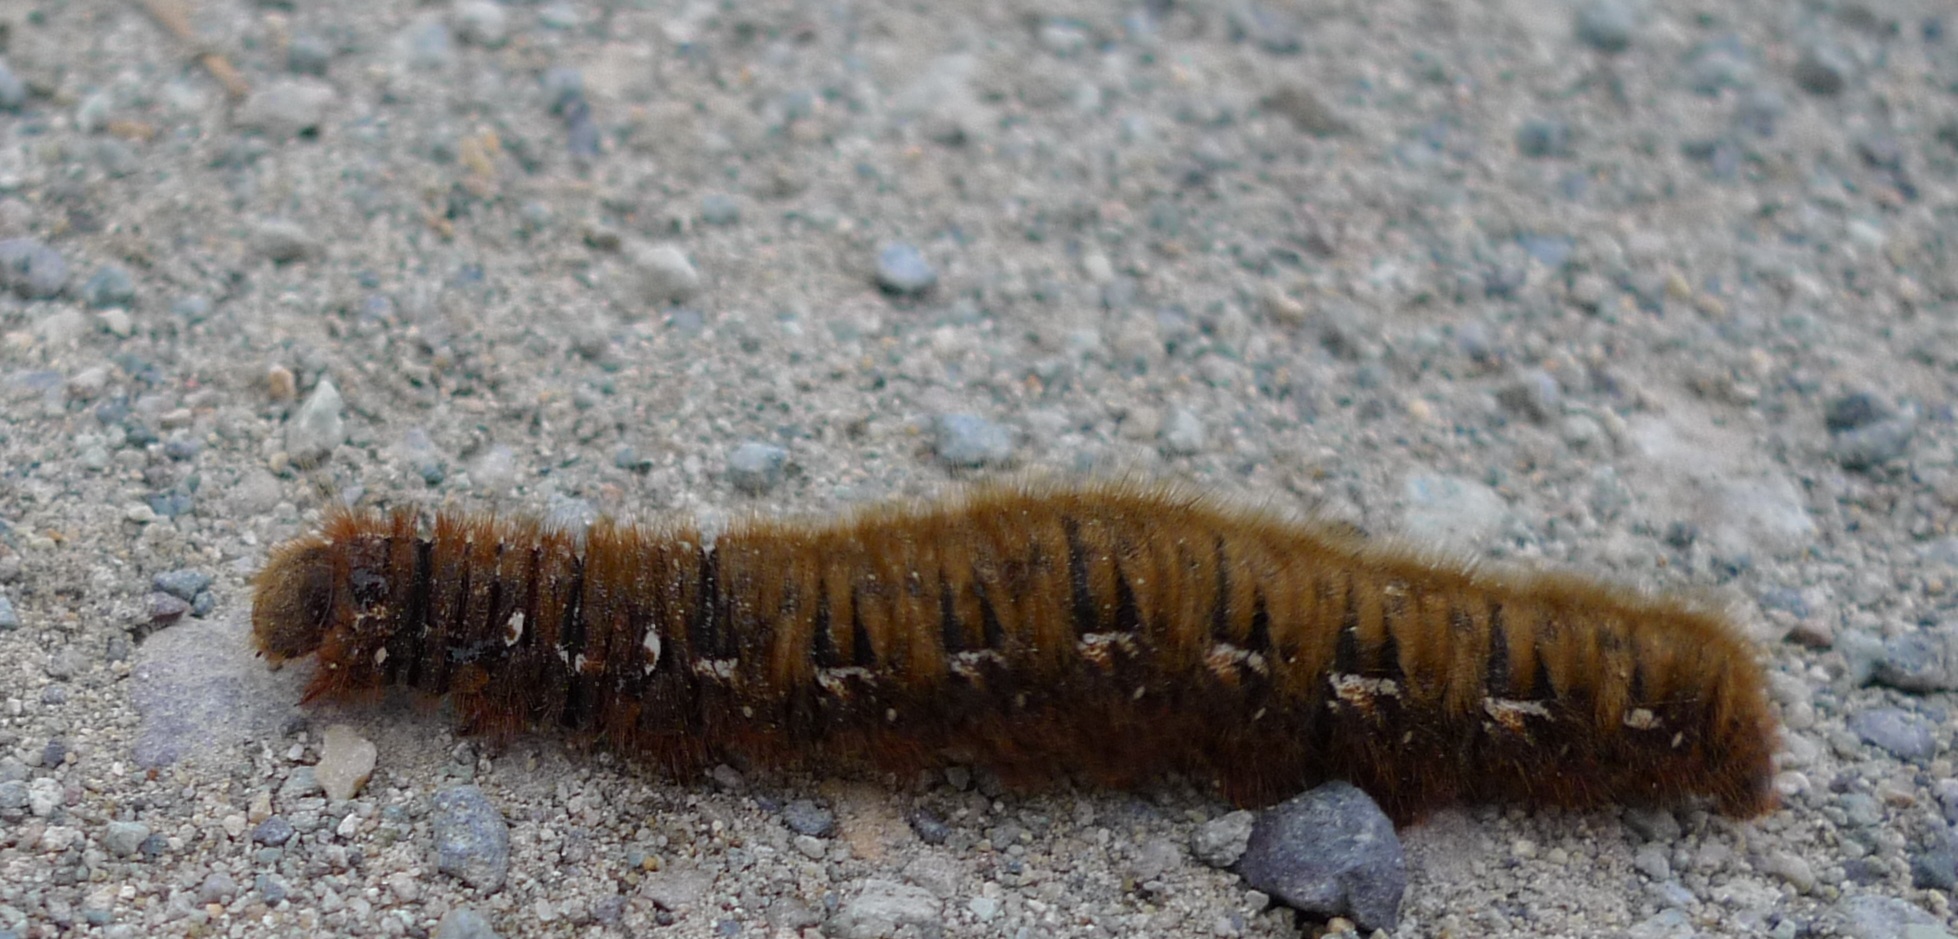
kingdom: Animalia
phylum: Arthropoda
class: Insecta
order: Lepidoptera
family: Lasiocampidae
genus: Lasiocampa
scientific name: Lasiocampa quercus
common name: Oak eggar
